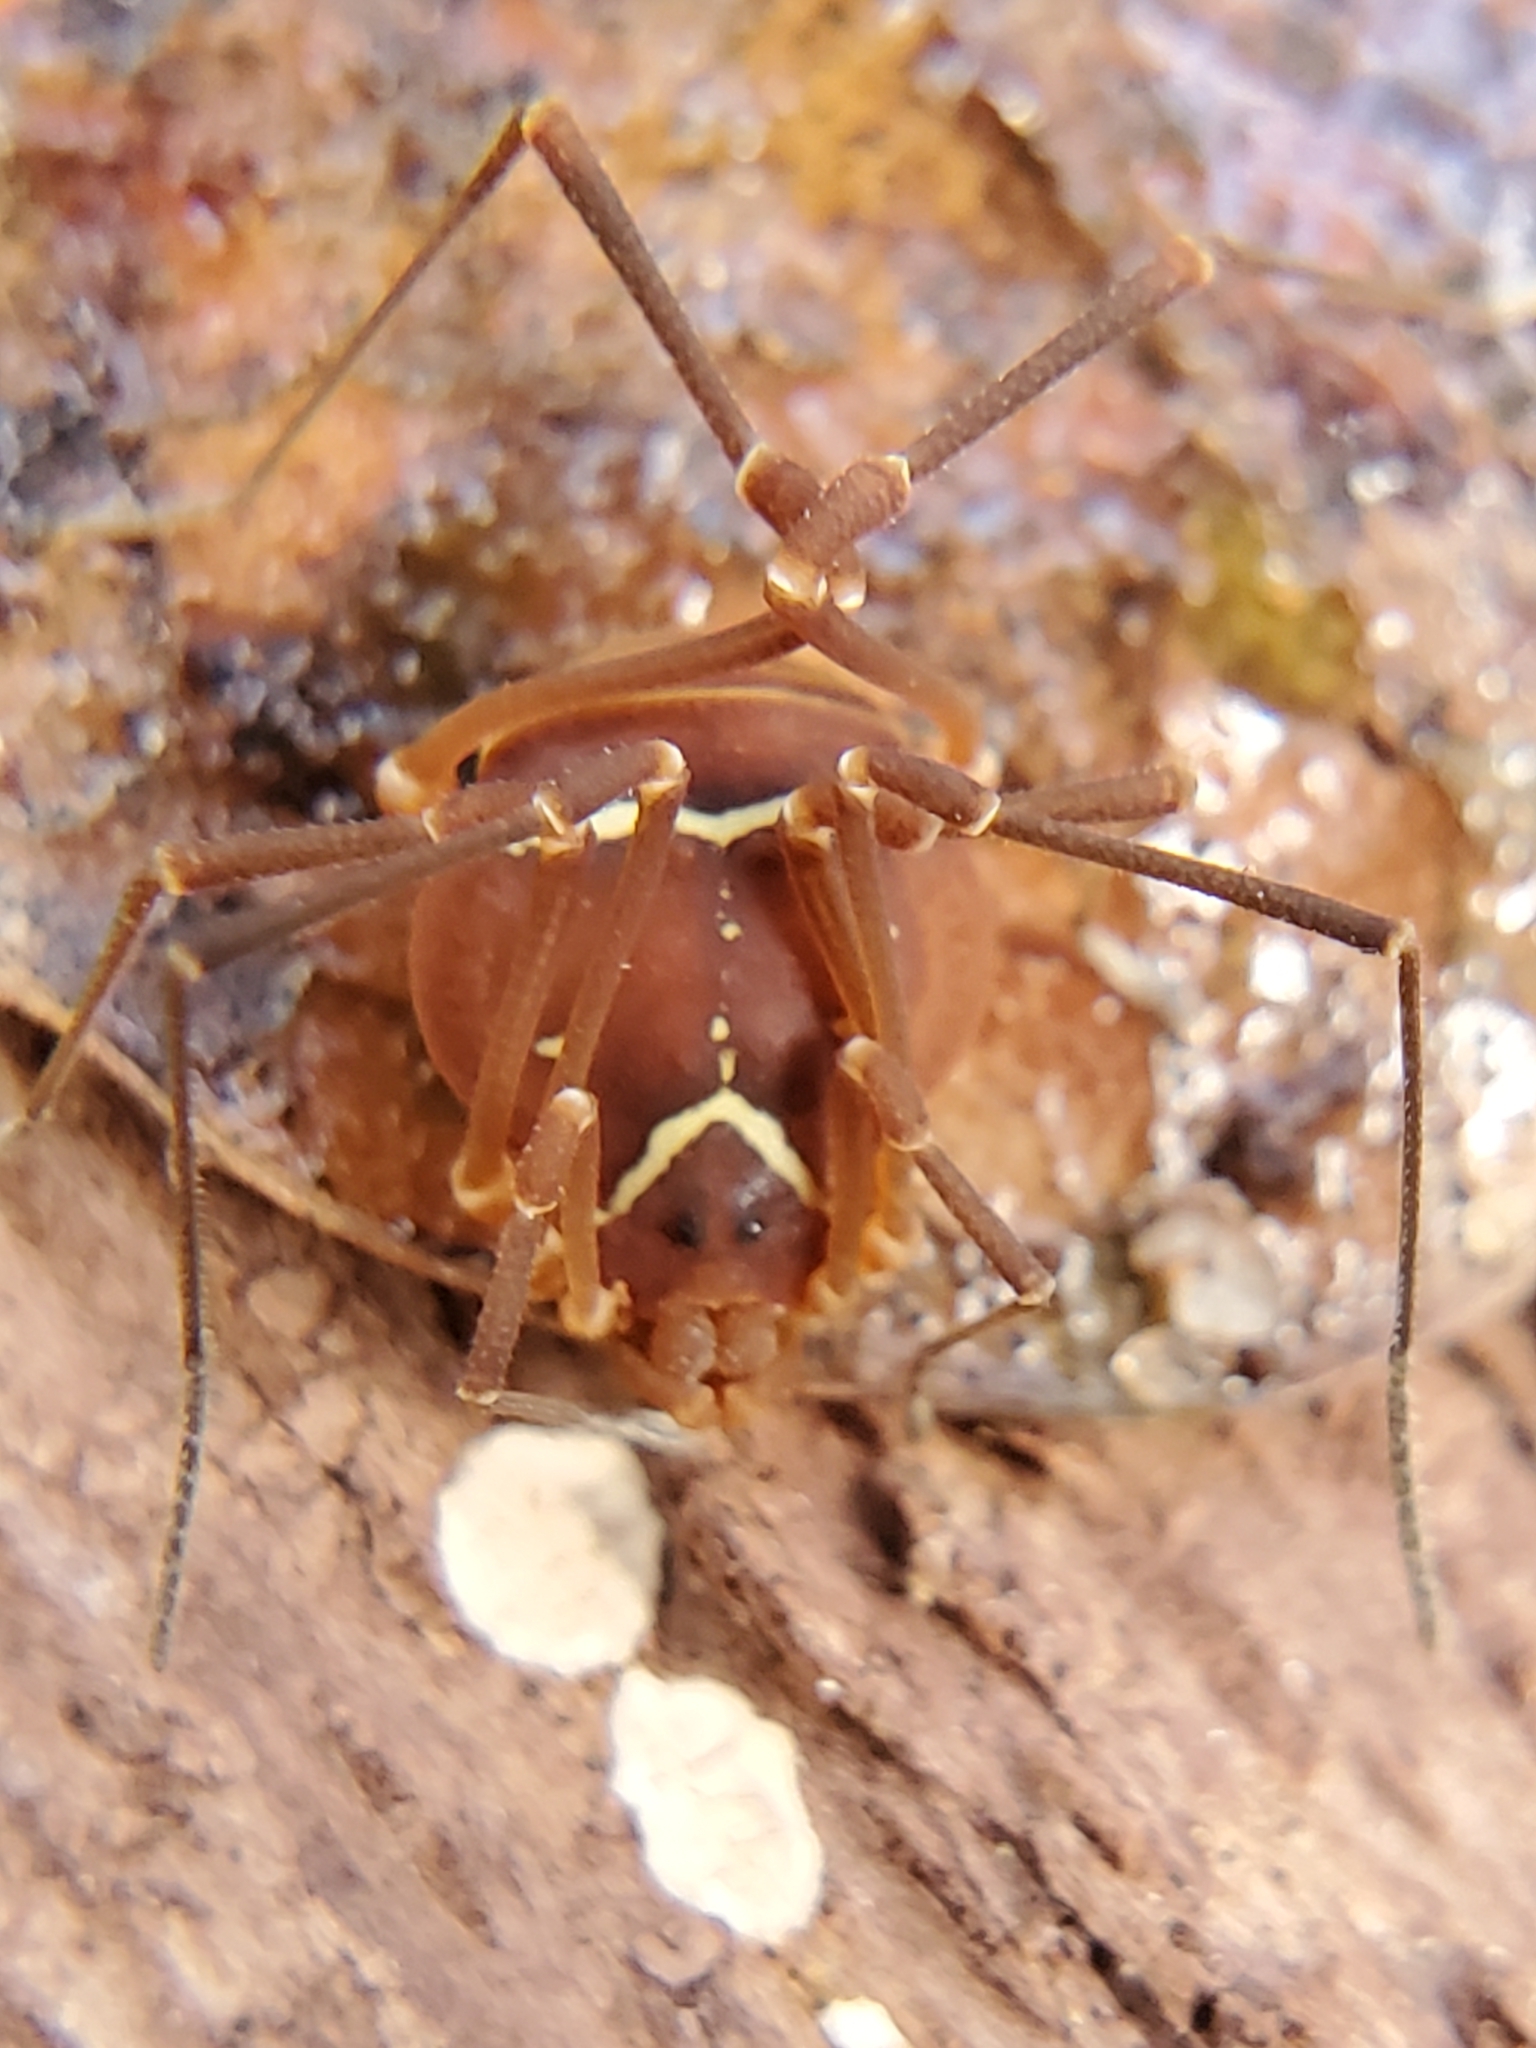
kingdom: Animalia
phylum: Arthropoda
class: Arachnida
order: Opiliones
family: Cosmetidae
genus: Libitioides
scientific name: Libitioides sayi
